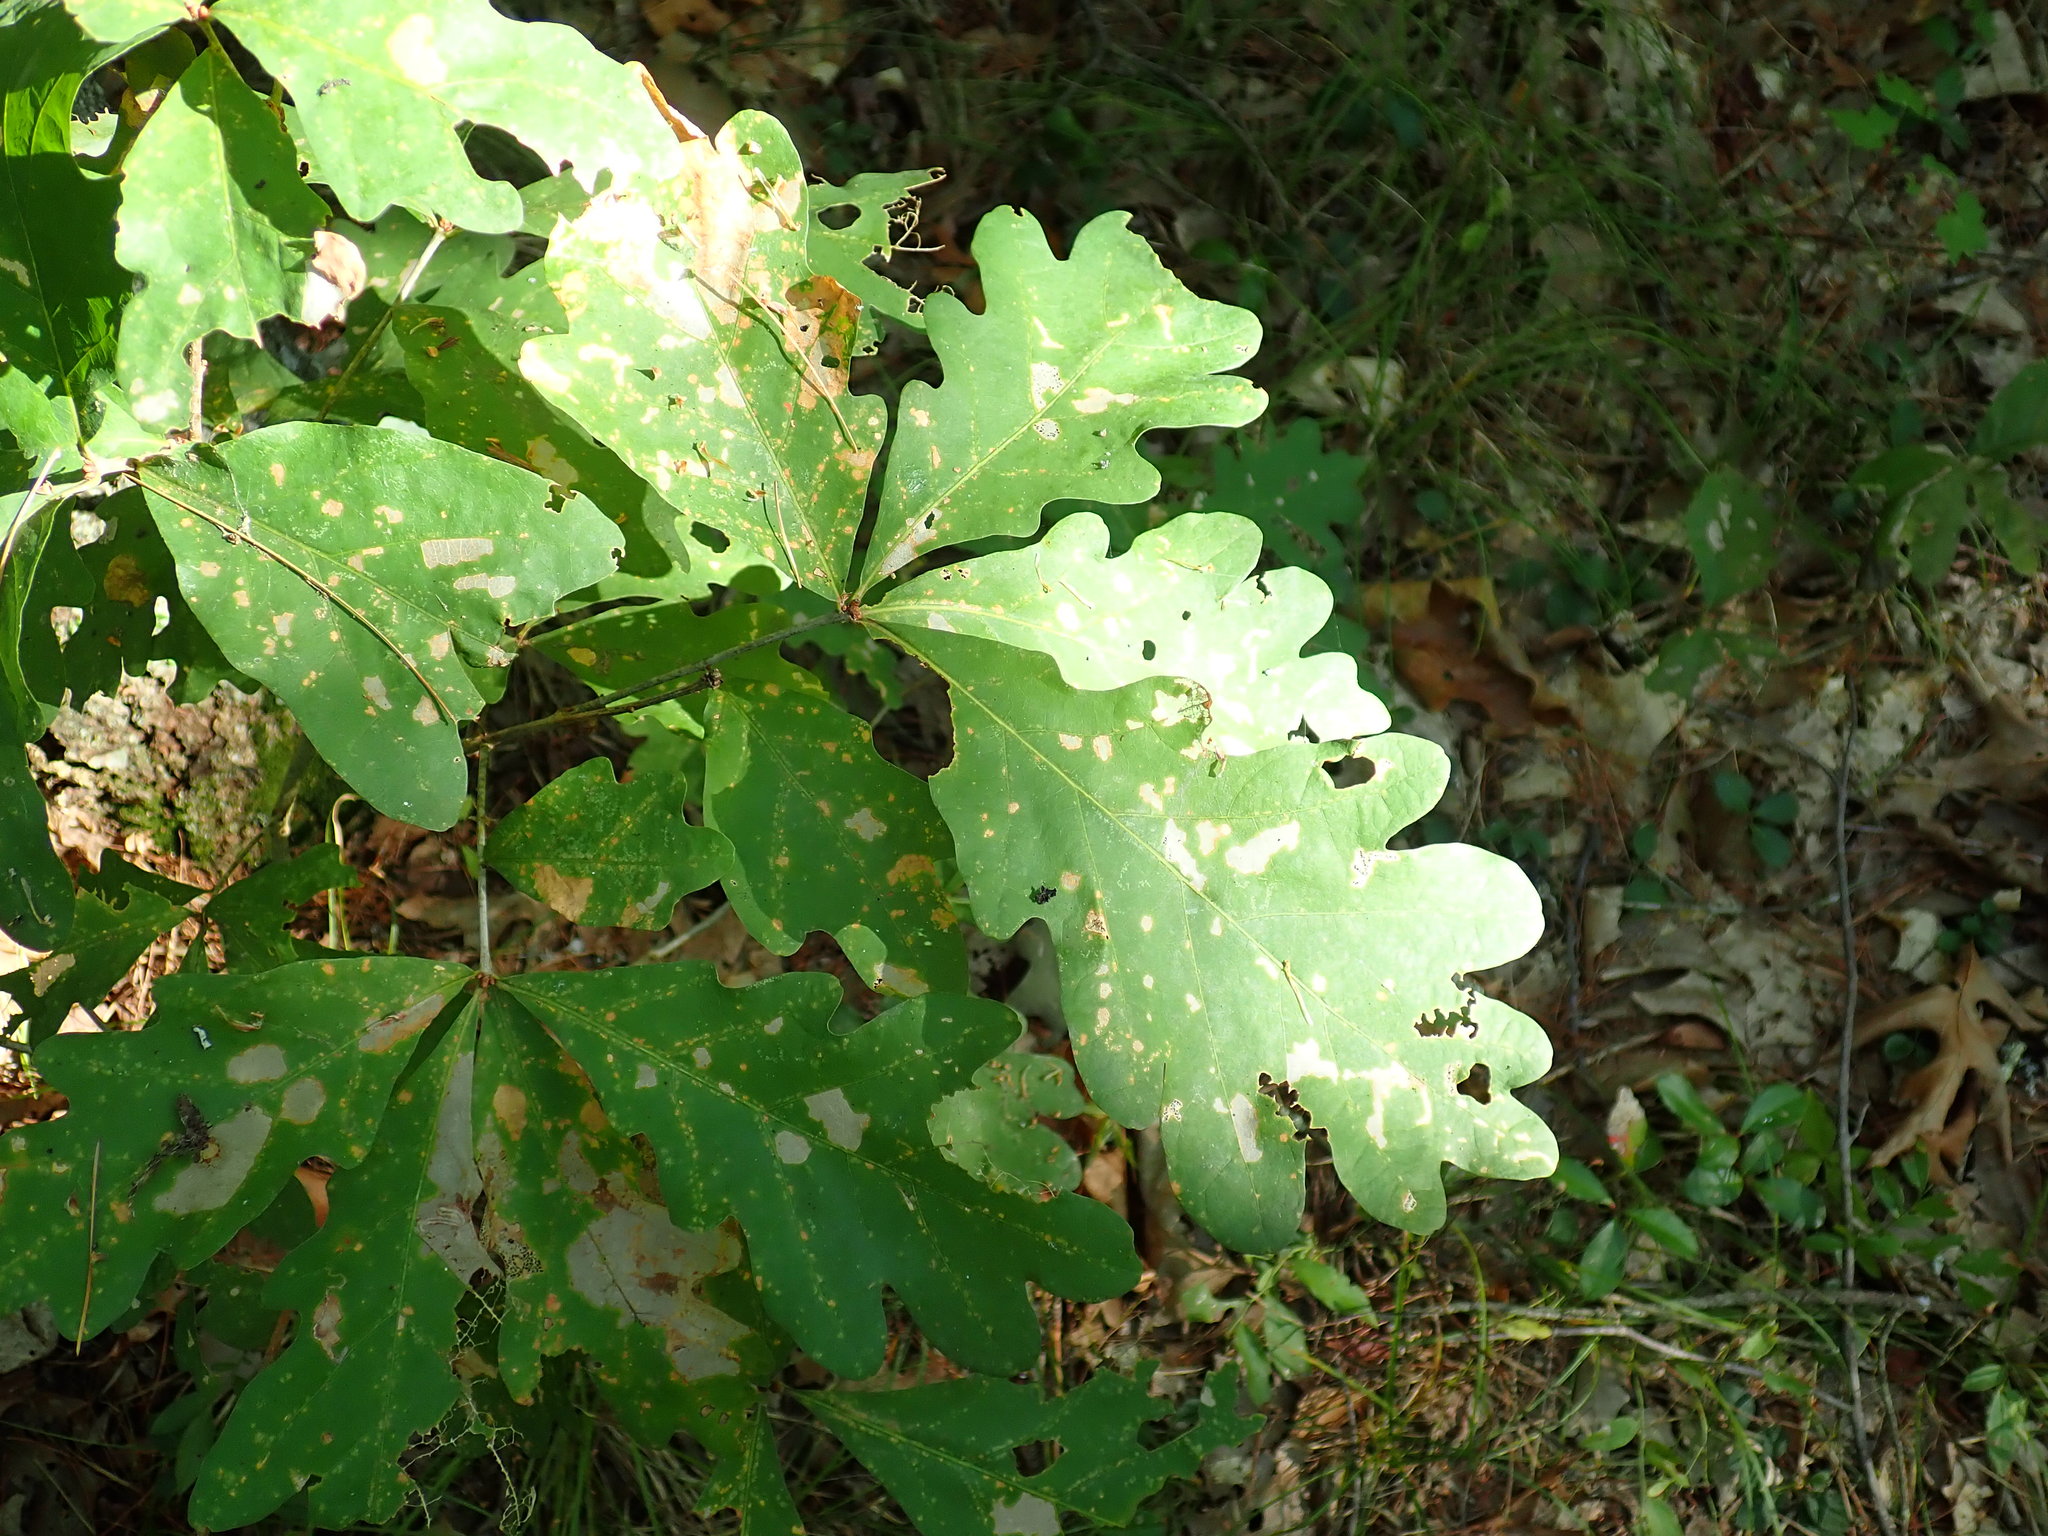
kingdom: Plantae
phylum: Tracheophyta
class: Magnoliopsida
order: Fagales
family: Fagaceae
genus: Quercus
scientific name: Quercus alba
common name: White oak
